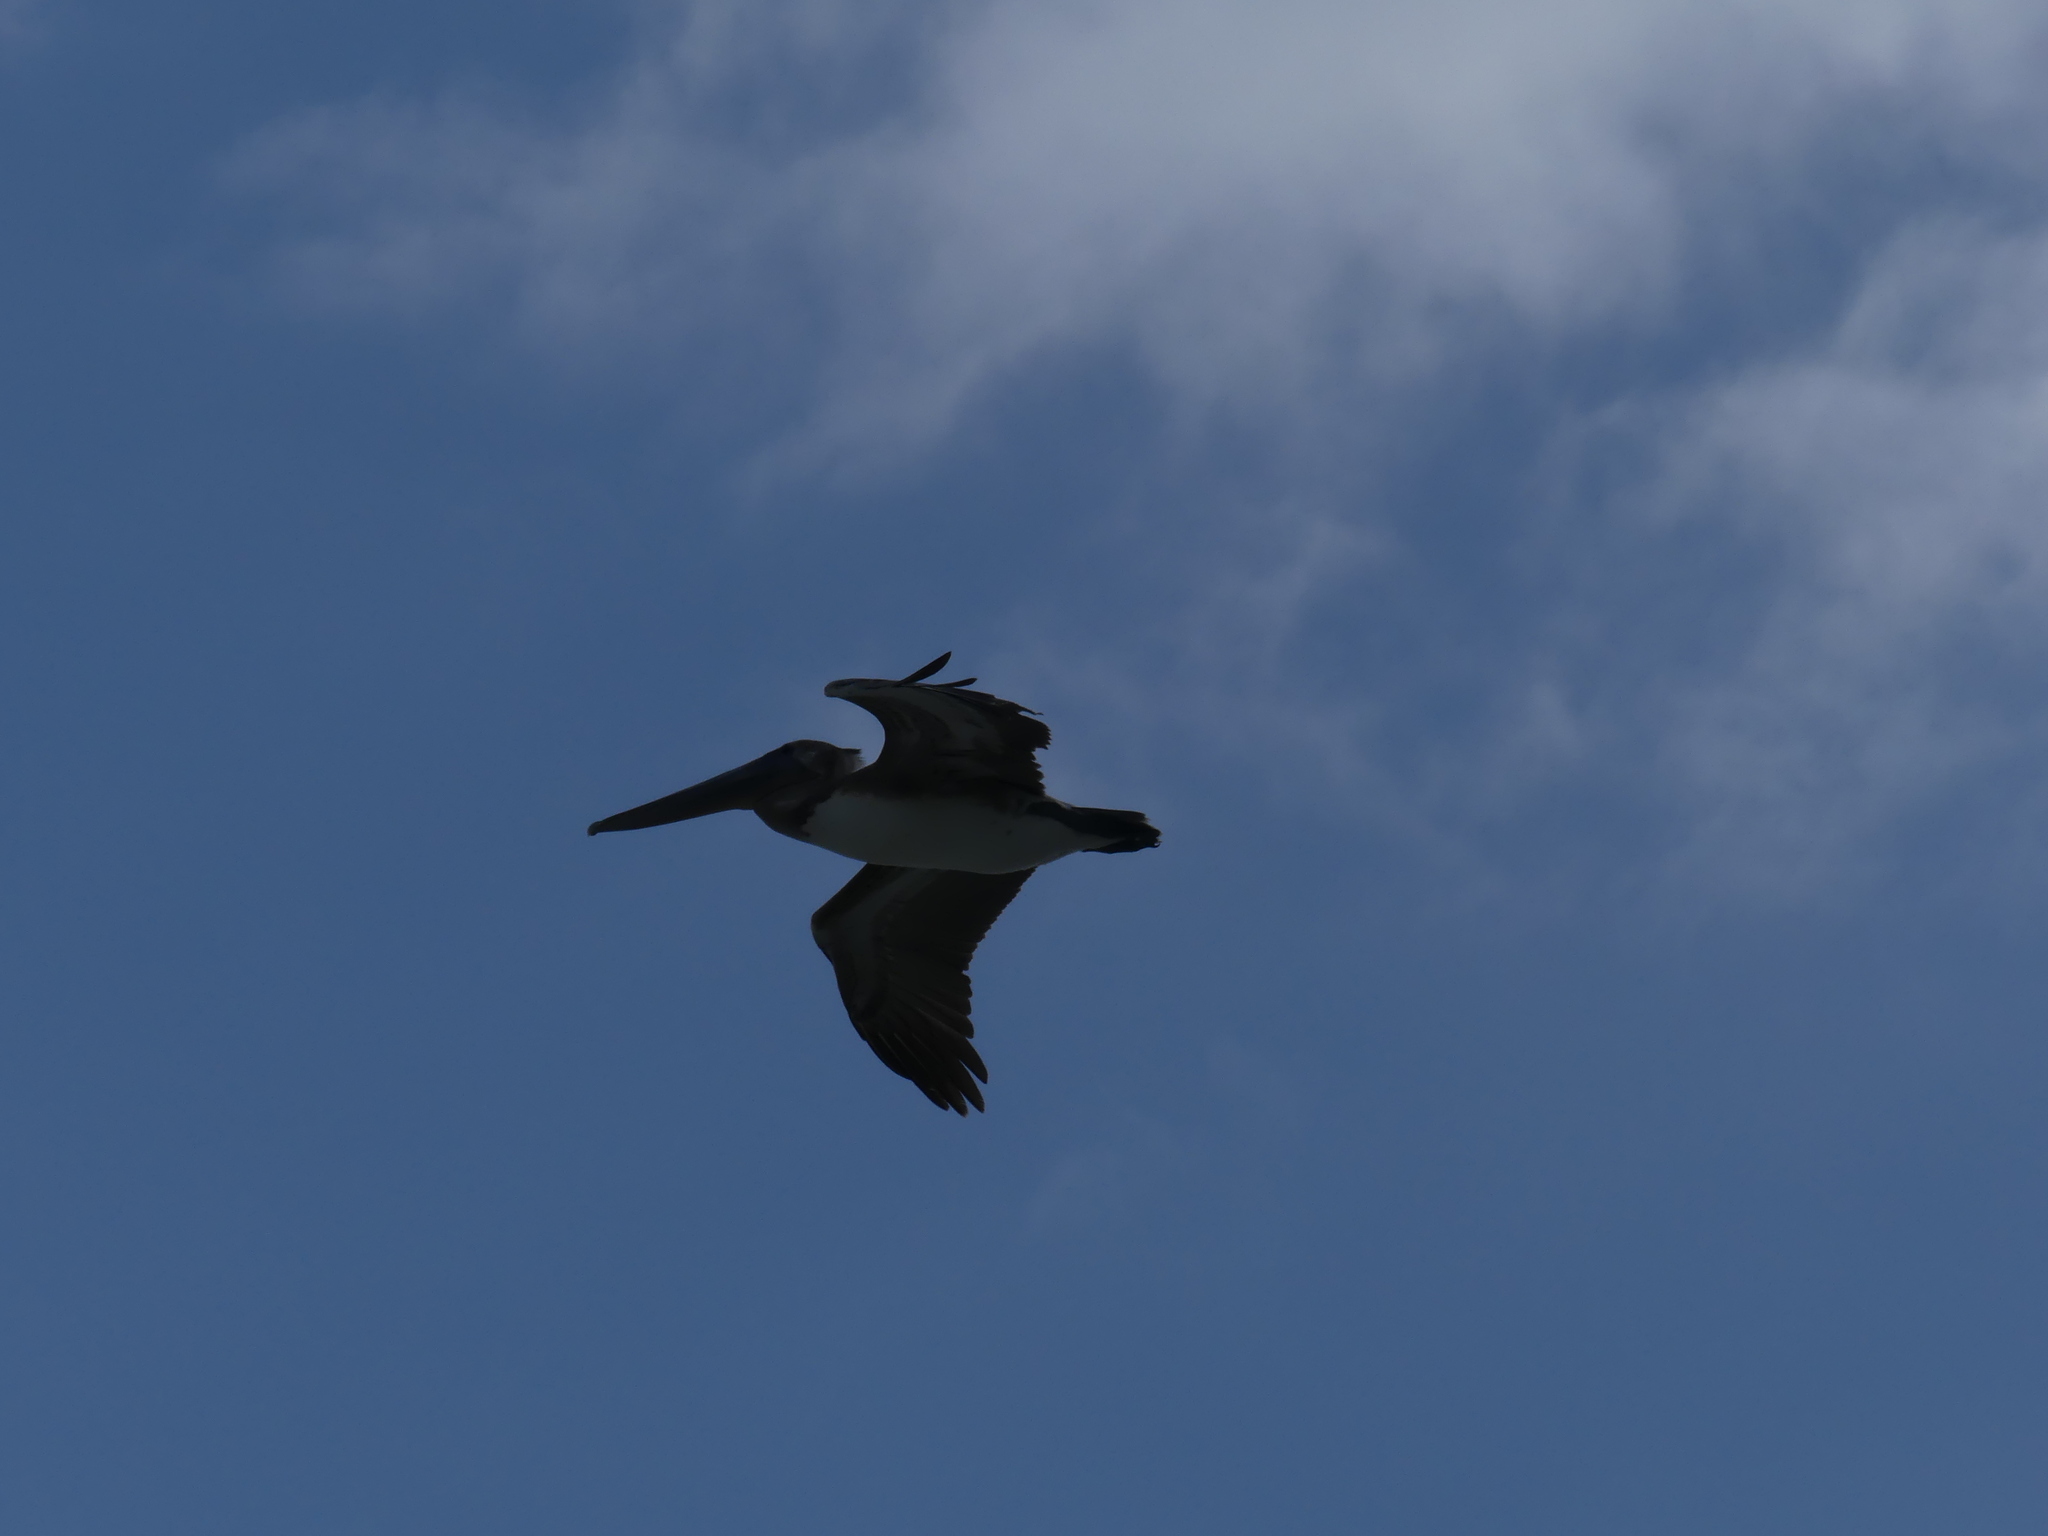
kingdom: Animalia
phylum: Chordata
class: Aves
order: Pelecaniformes
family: Pelecanidae
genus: Pelecanus
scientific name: Pelecanus occidentalis
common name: Brown pelican
